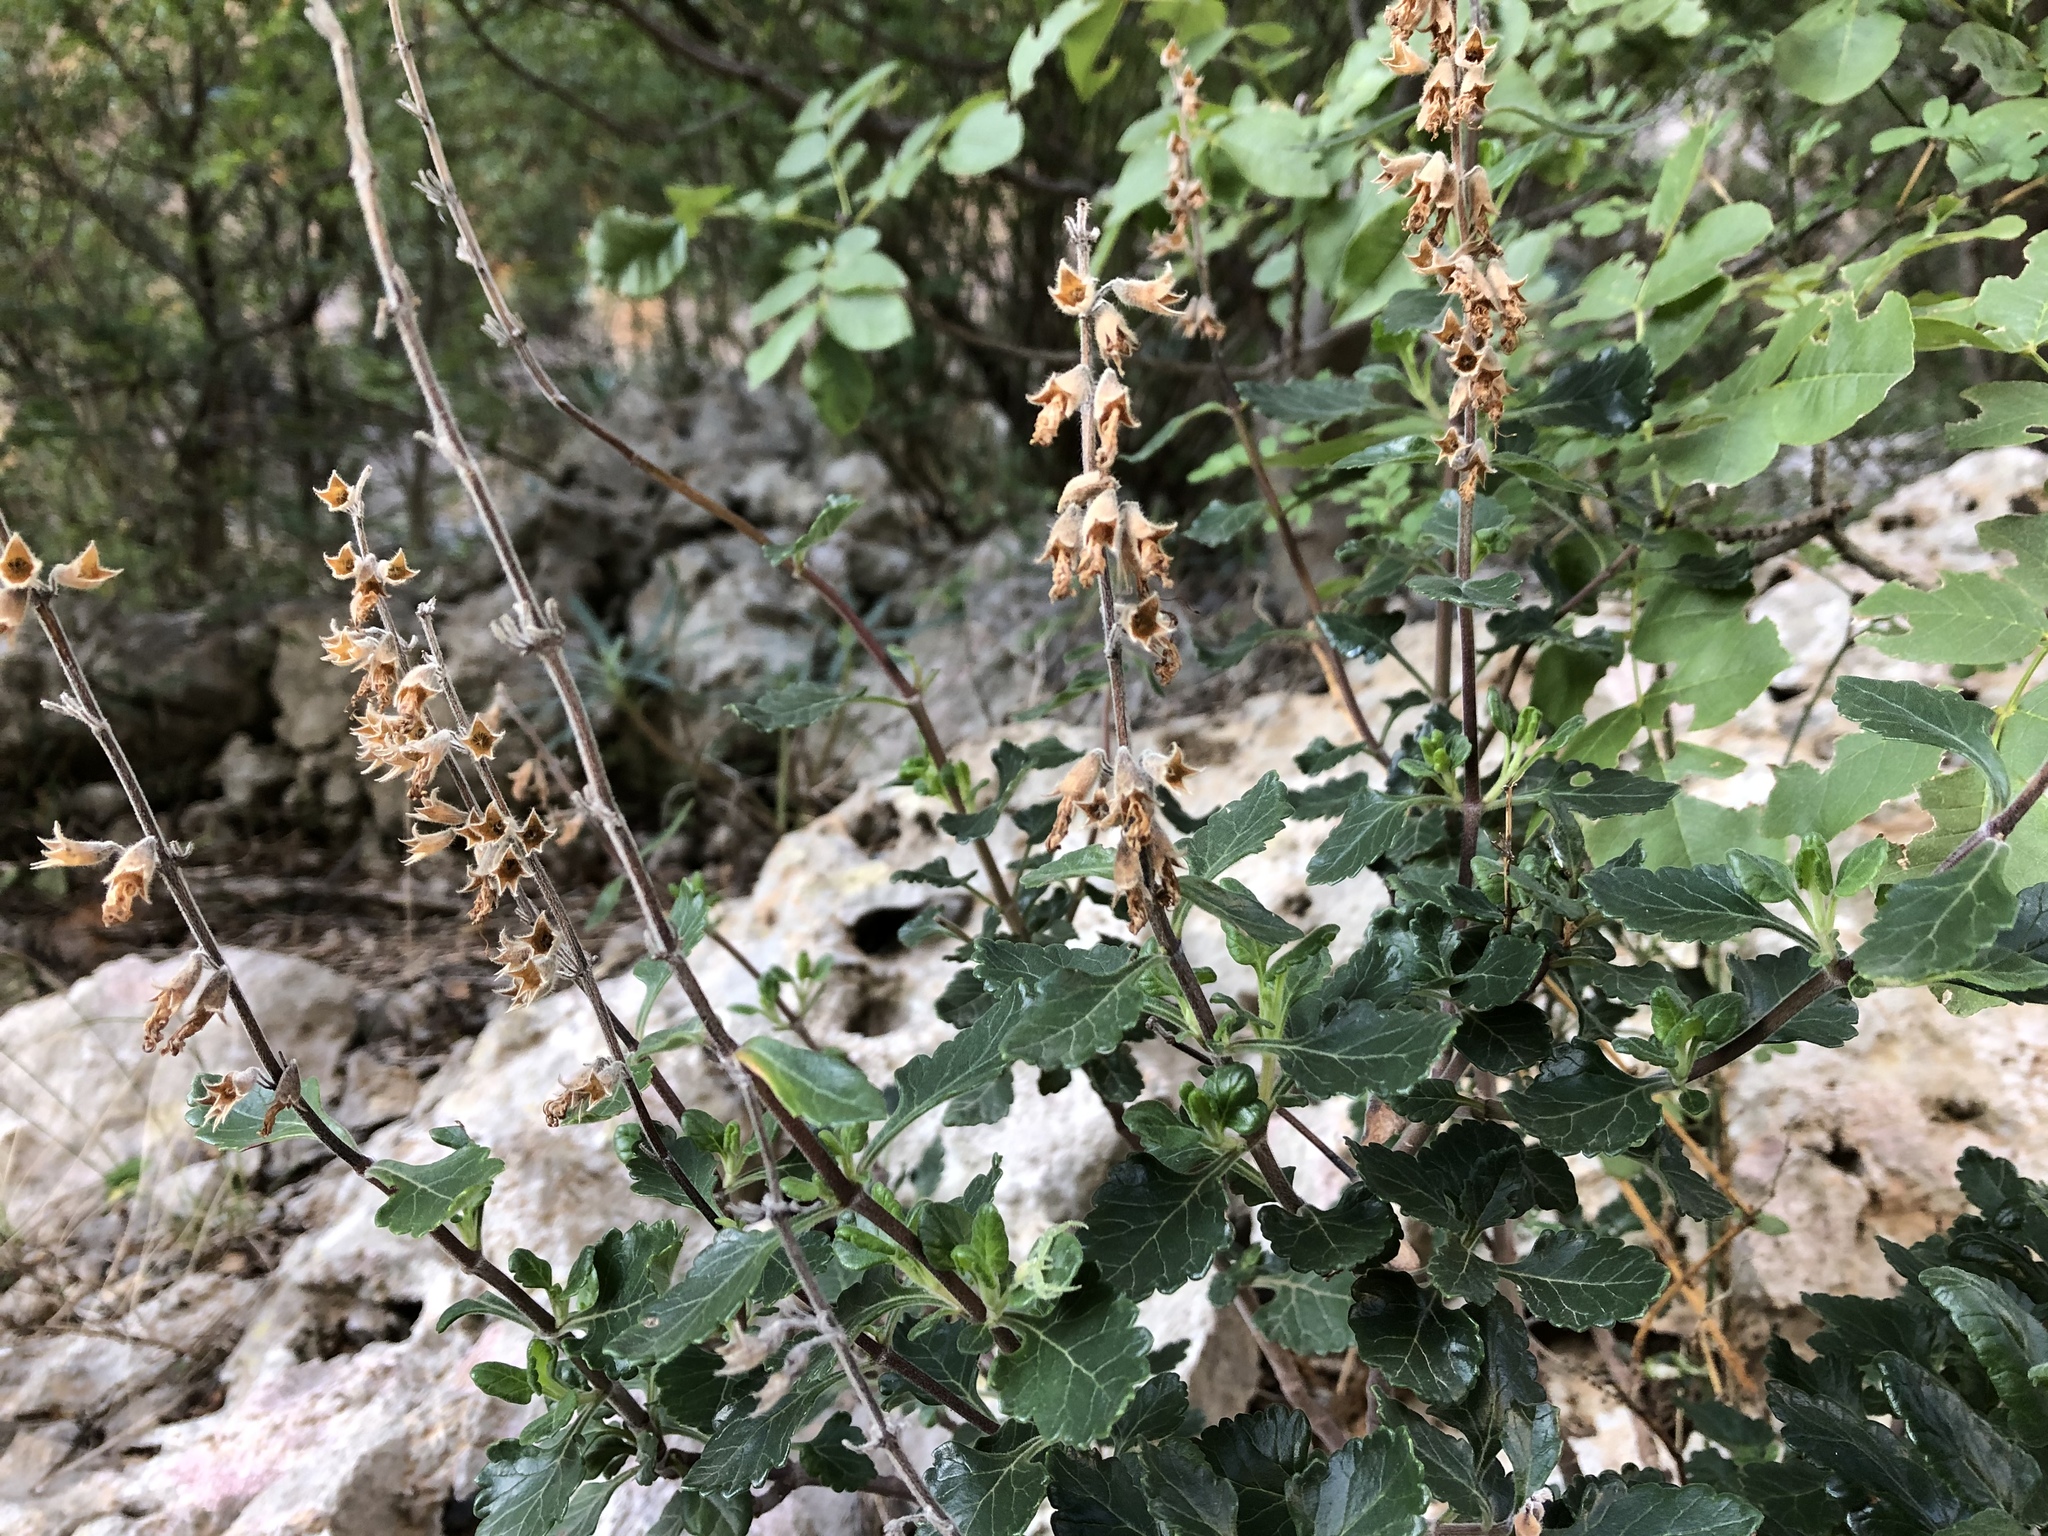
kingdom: Plantae
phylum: Tracheophyta
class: Magnoliopsida
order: Lamiales
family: Lamiaceae
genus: Teucrium
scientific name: Teucrium flavum
